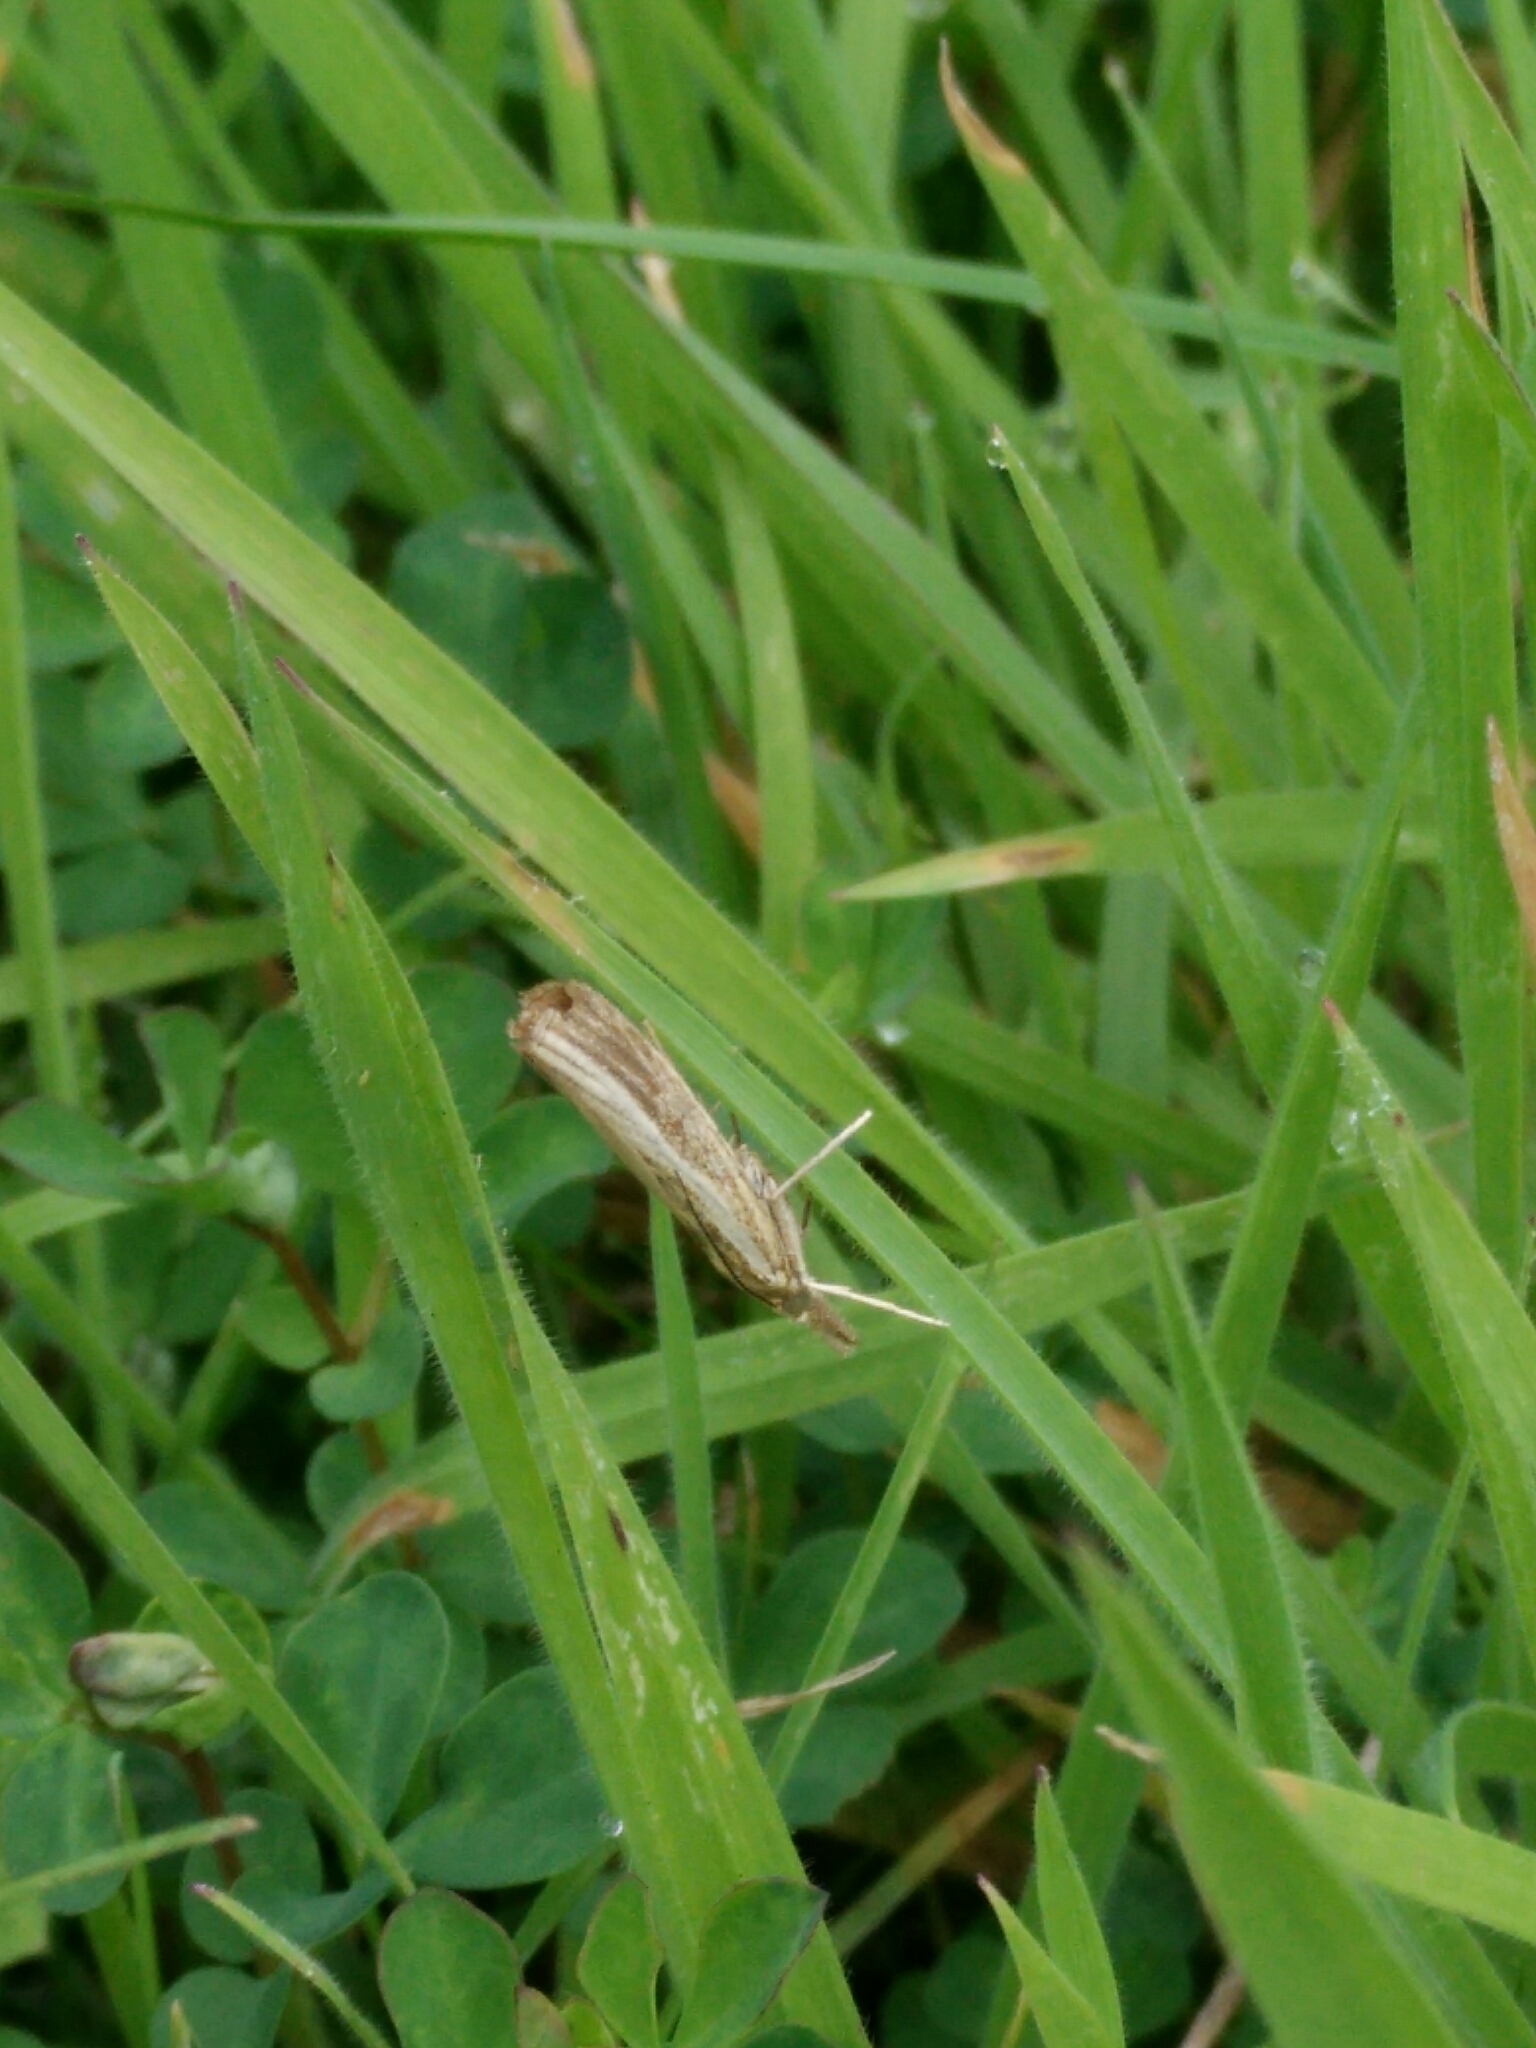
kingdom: Animalia
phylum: Arthropoda
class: Insecta
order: Lepidoptera
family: Crambidae
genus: Agriphila
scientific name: Agriphila tristellus
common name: Common grass-veneer
